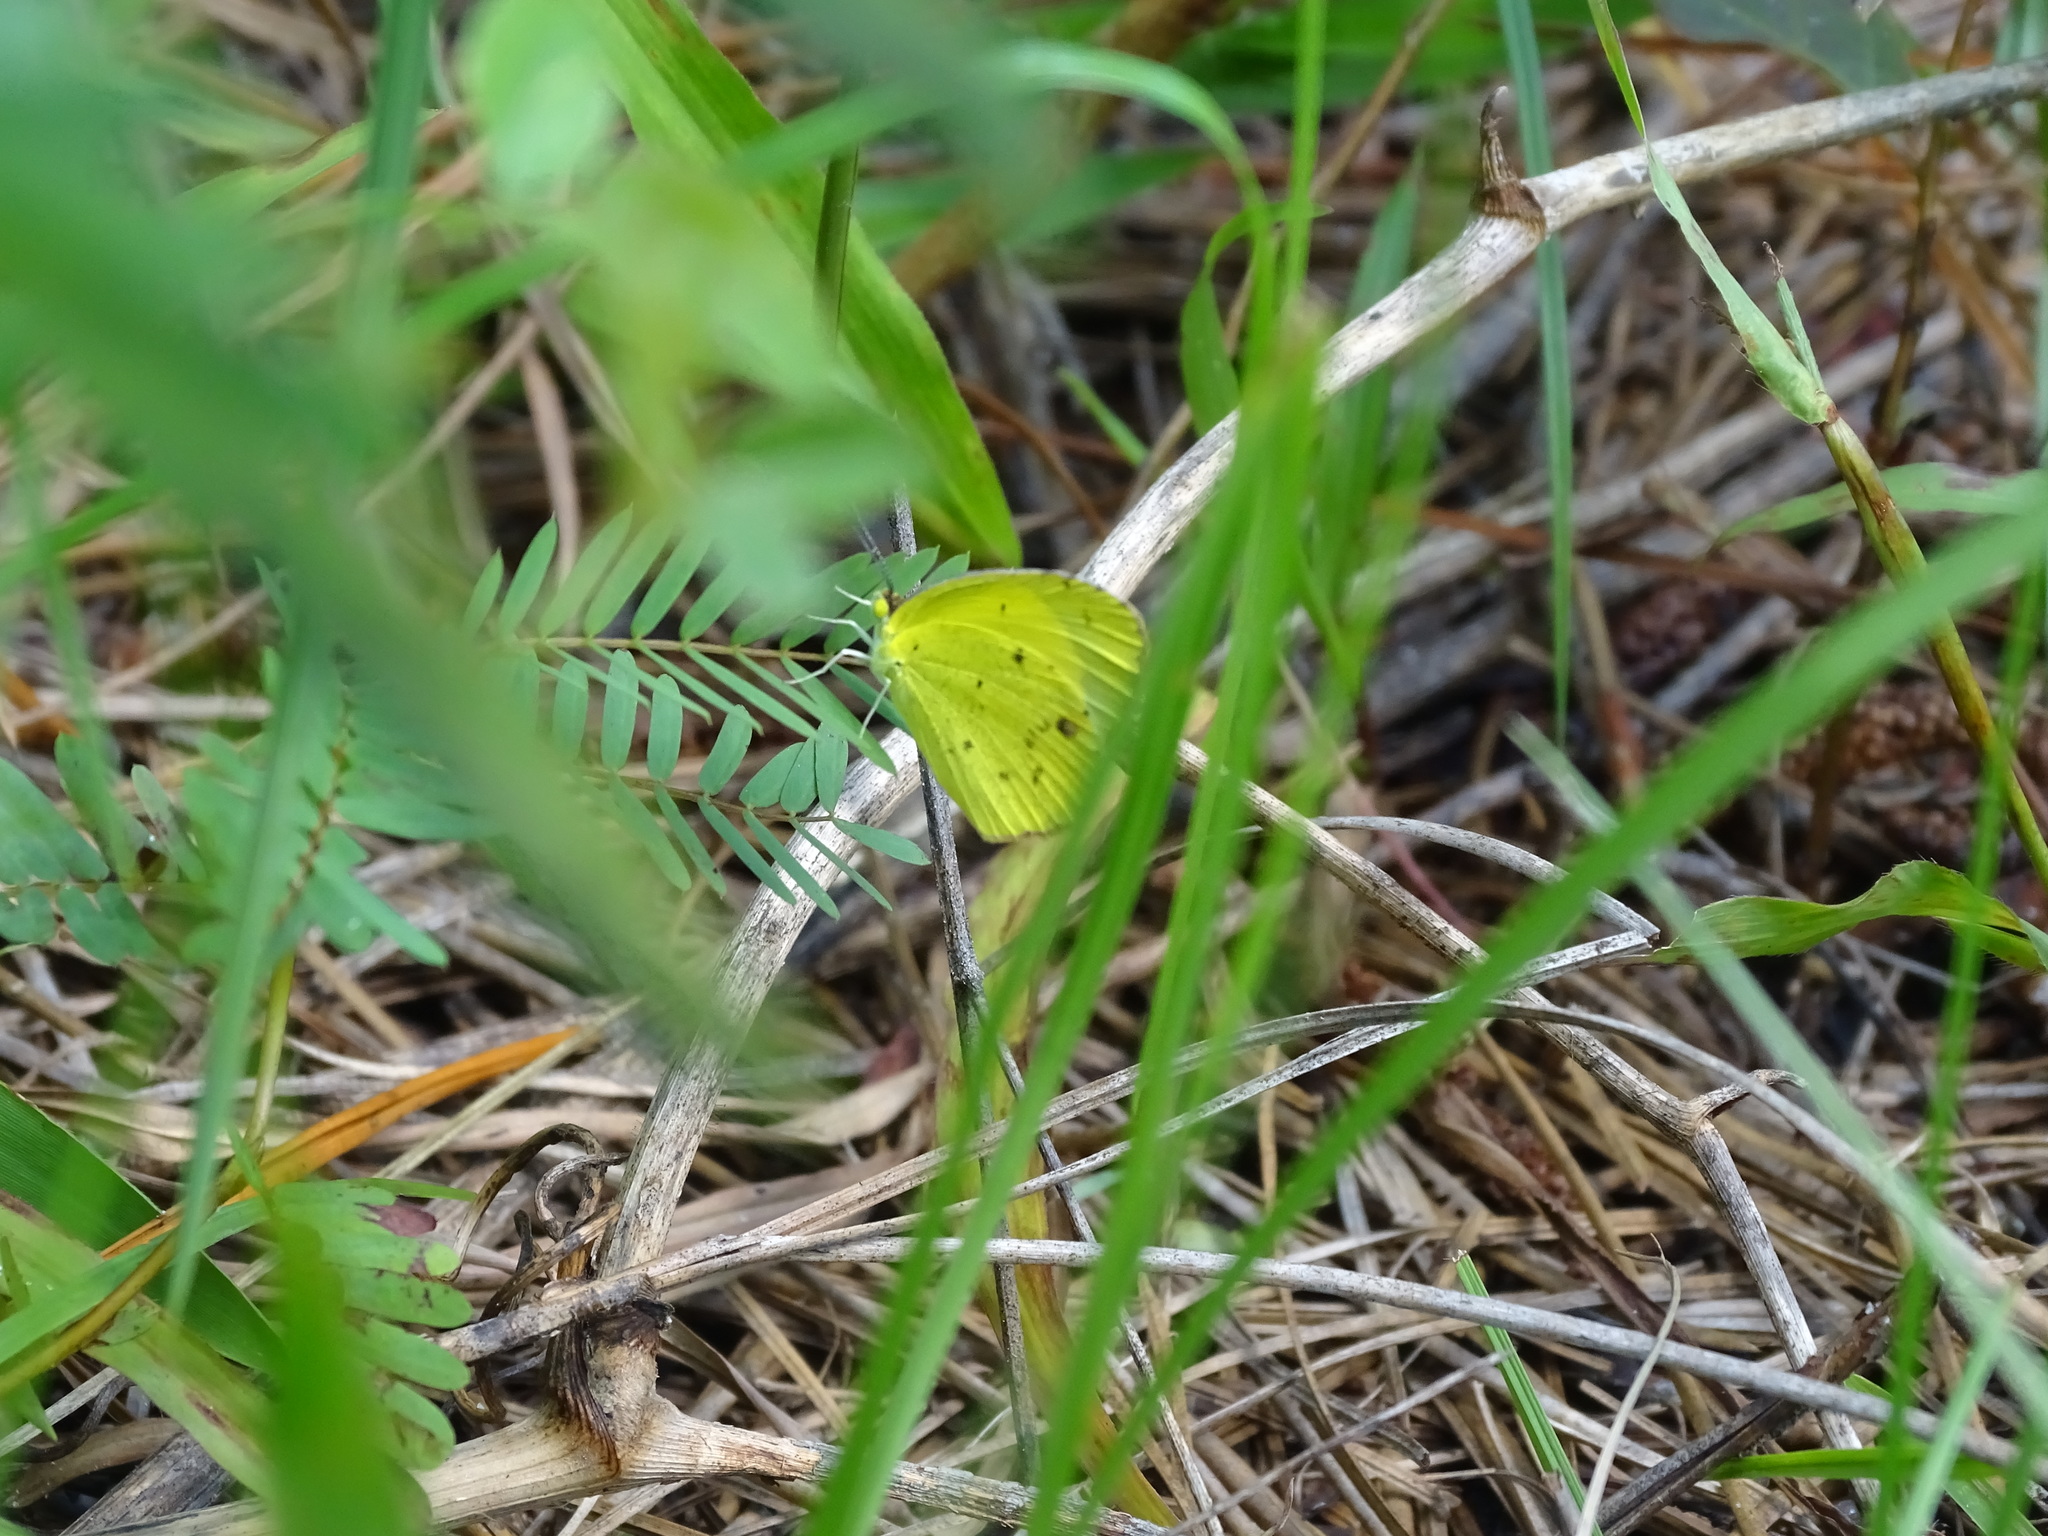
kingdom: Animalia
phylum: Arthropoda
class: Insecta
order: Lepidoptera
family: Pieridae
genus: Pyrisitia
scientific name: Pyrisitia lisa
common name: Little yellow
